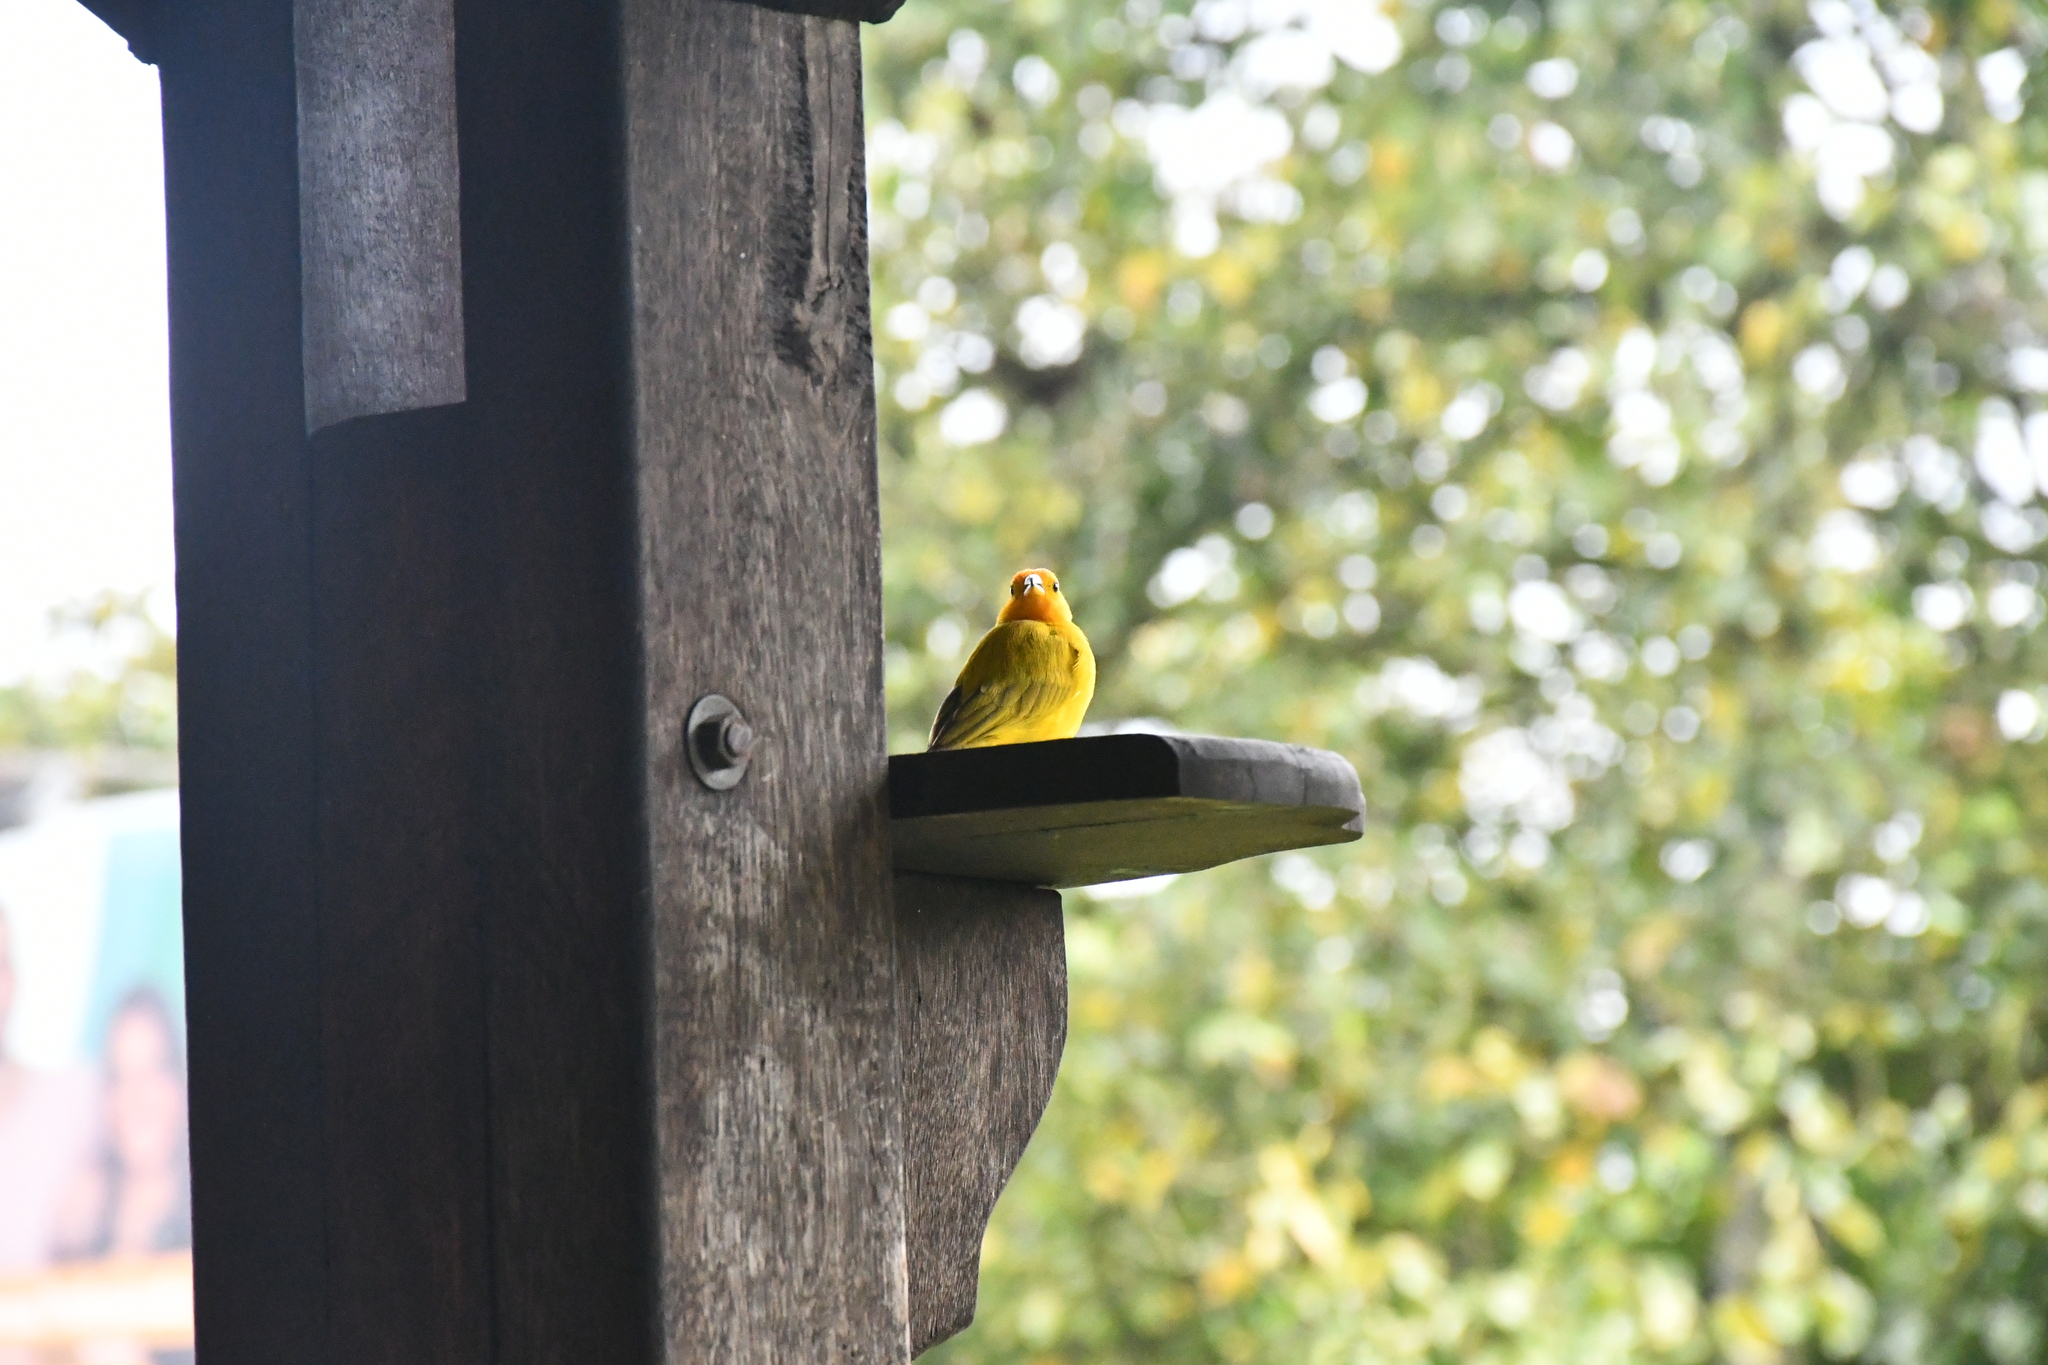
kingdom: Animalia
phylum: Chordata
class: Aves
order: Passeriformes
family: Thraupidae
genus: Sicalis
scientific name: Sicalis flaveola
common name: Saffron finch
